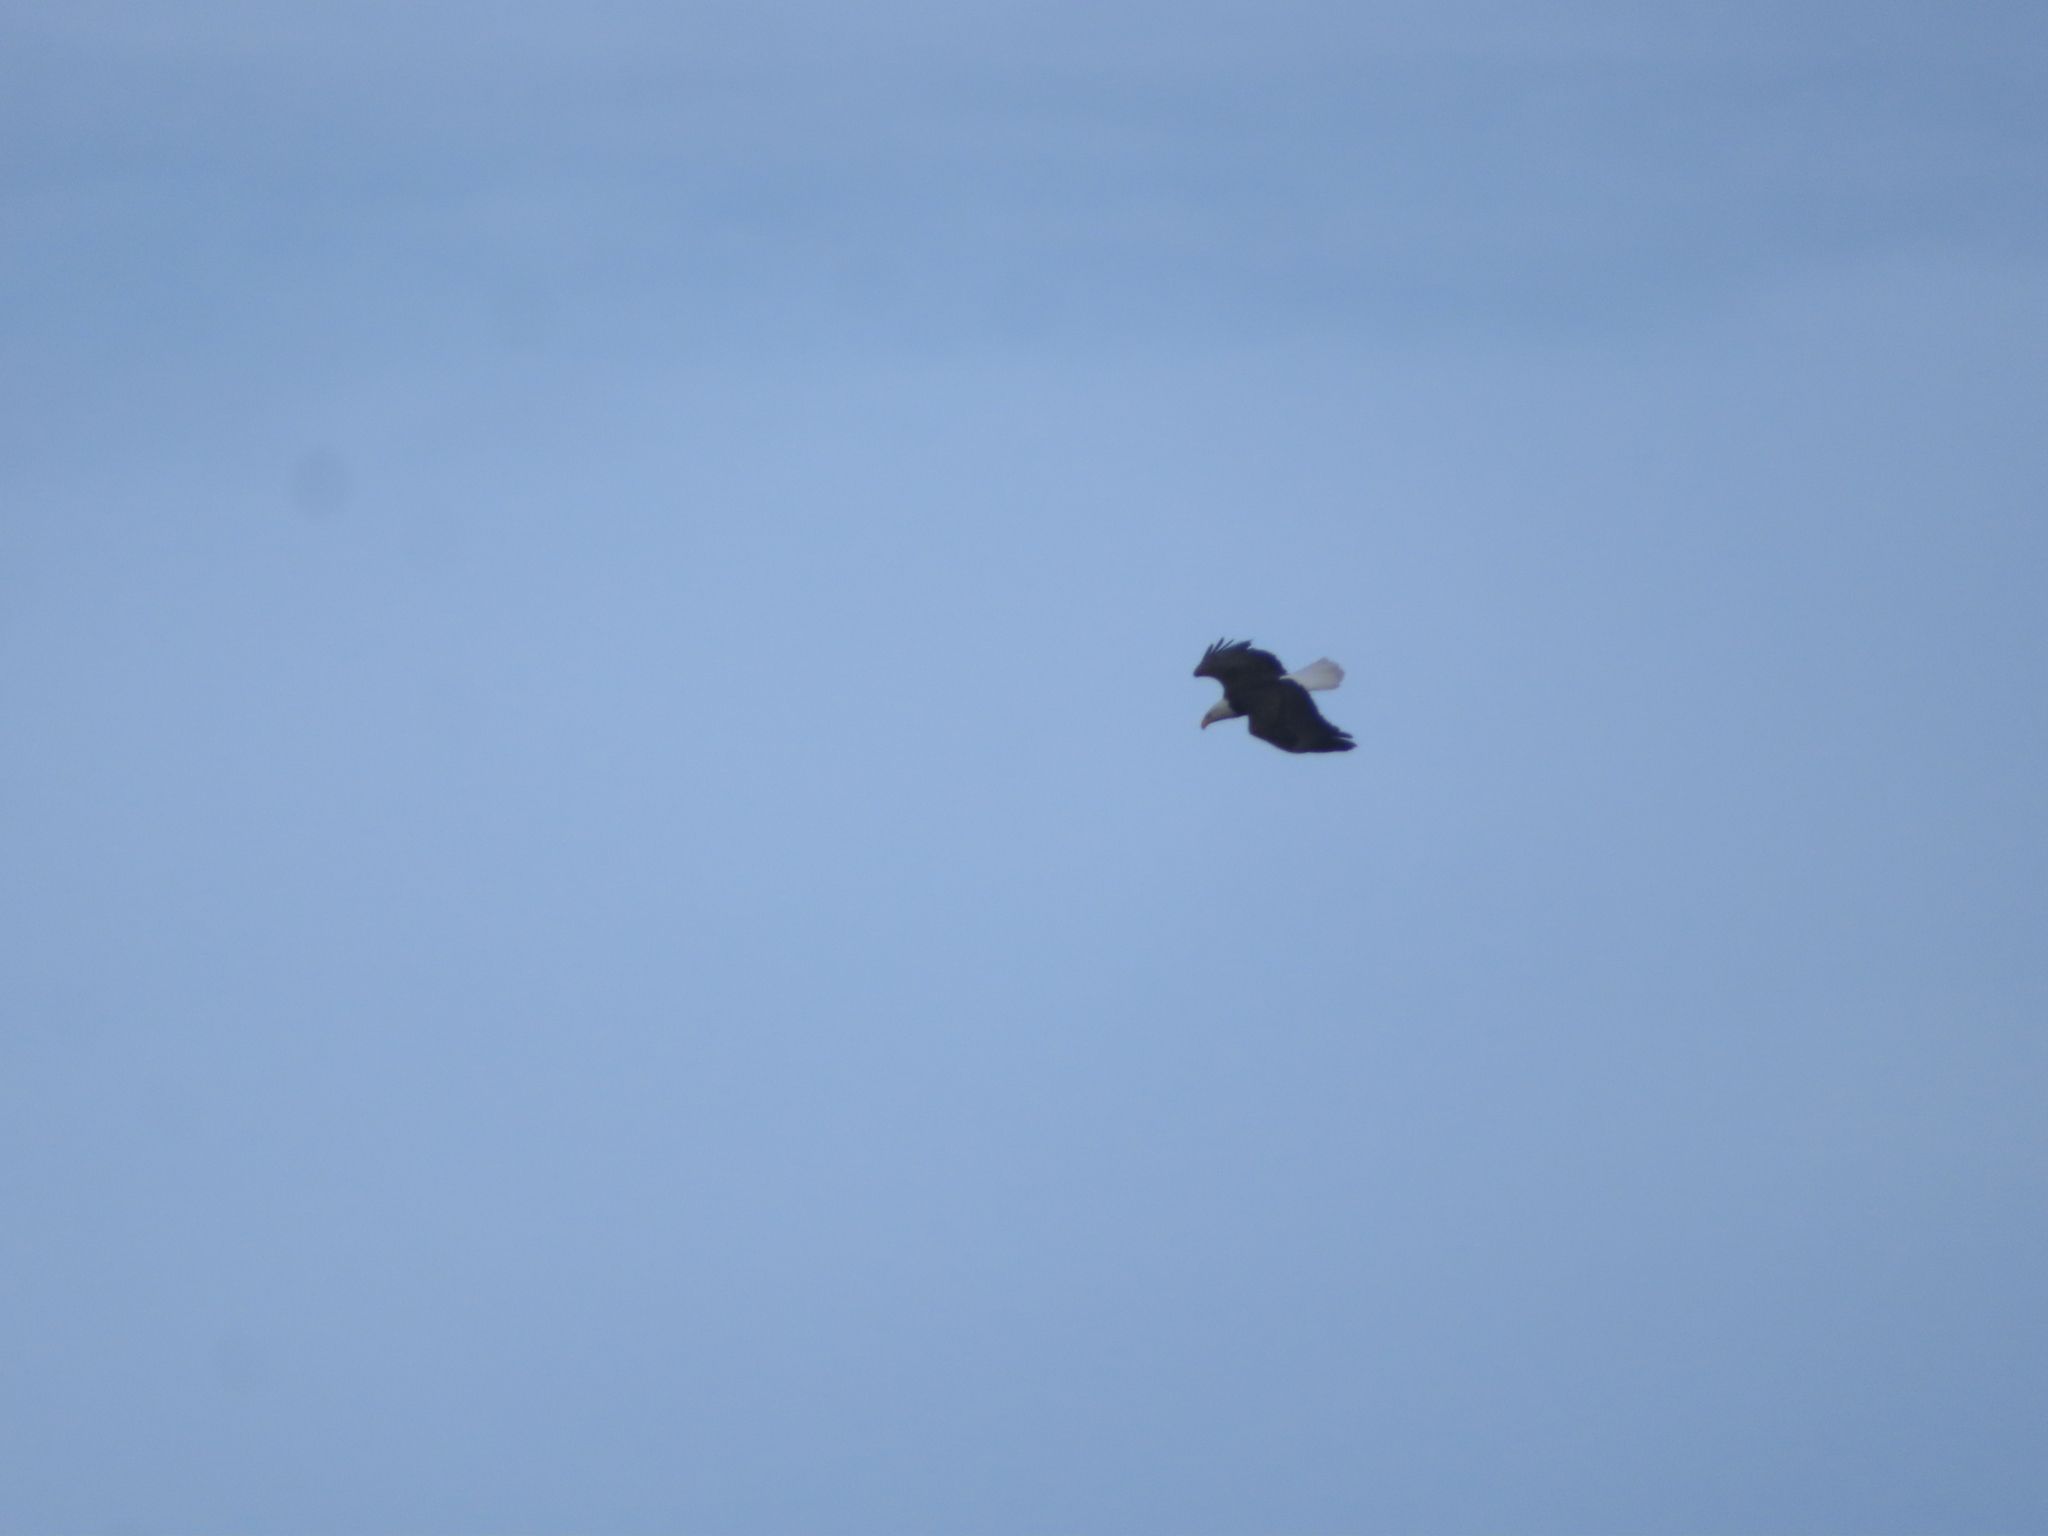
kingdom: Animalia
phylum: Chordata
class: Aves
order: Accipitriformes
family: Accipitridae
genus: Haliaeetus
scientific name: Haliaeetus leucocephalus
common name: Bald eagle
